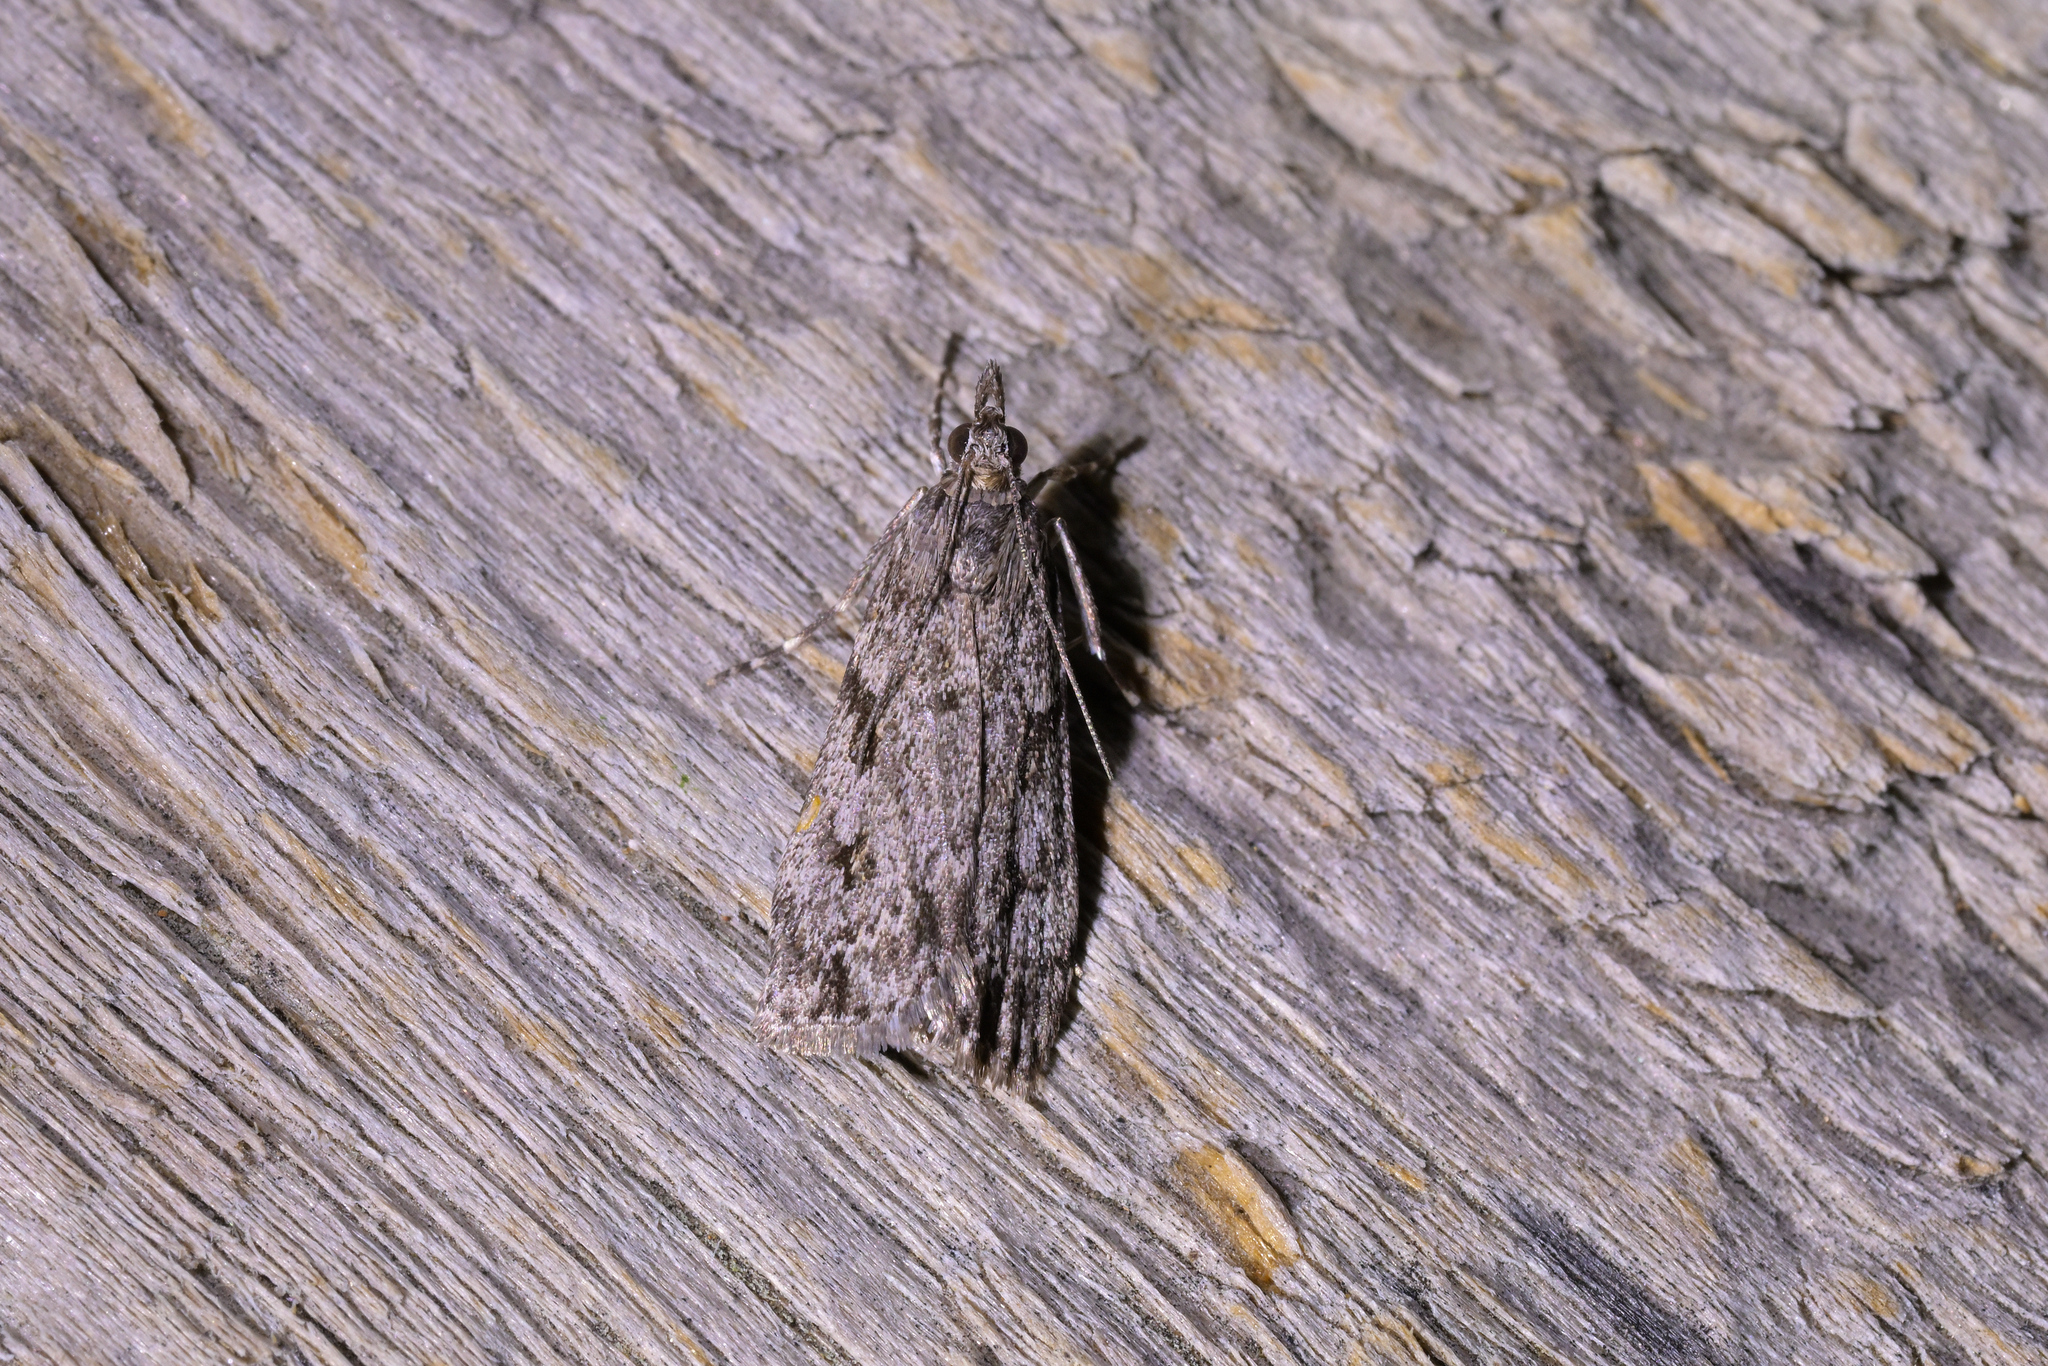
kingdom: Animalia
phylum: Arthropoda
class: Insecta
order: Lepidoptera
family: Crambidae
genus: Eudonia
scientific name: Eudonia cymatias
